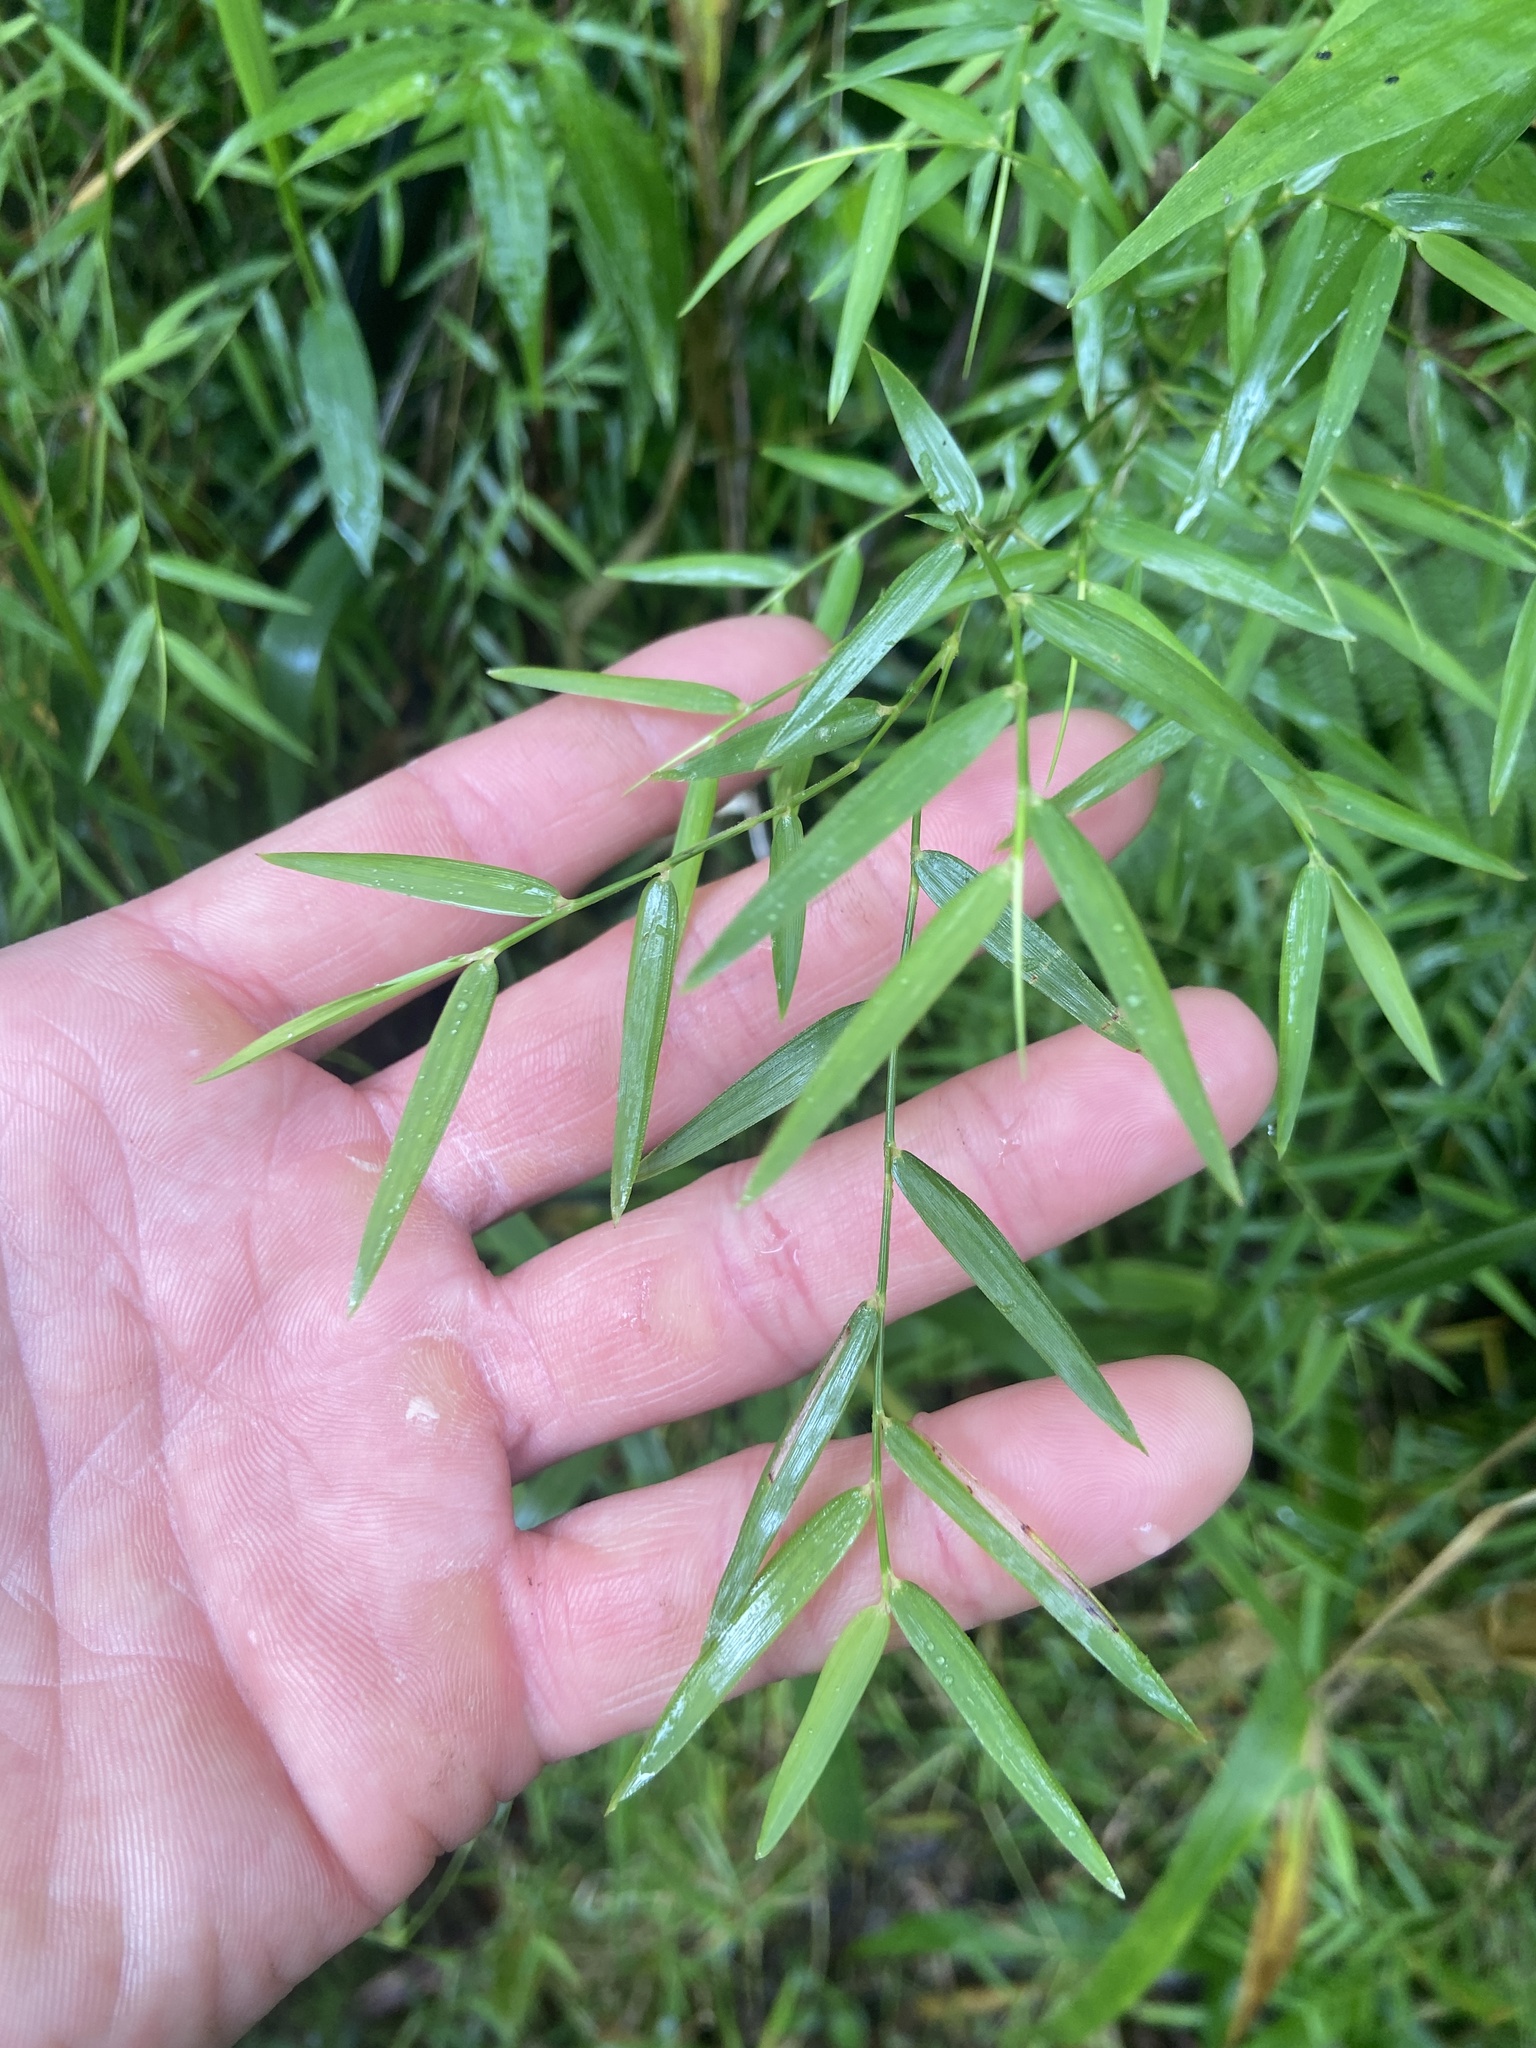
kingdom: Plantae
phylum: Tracheophyta
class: Liliopsida
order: Poales
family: Poaceae
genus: Arthrostylidium
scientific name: Arthrostylidium sarmentosum
